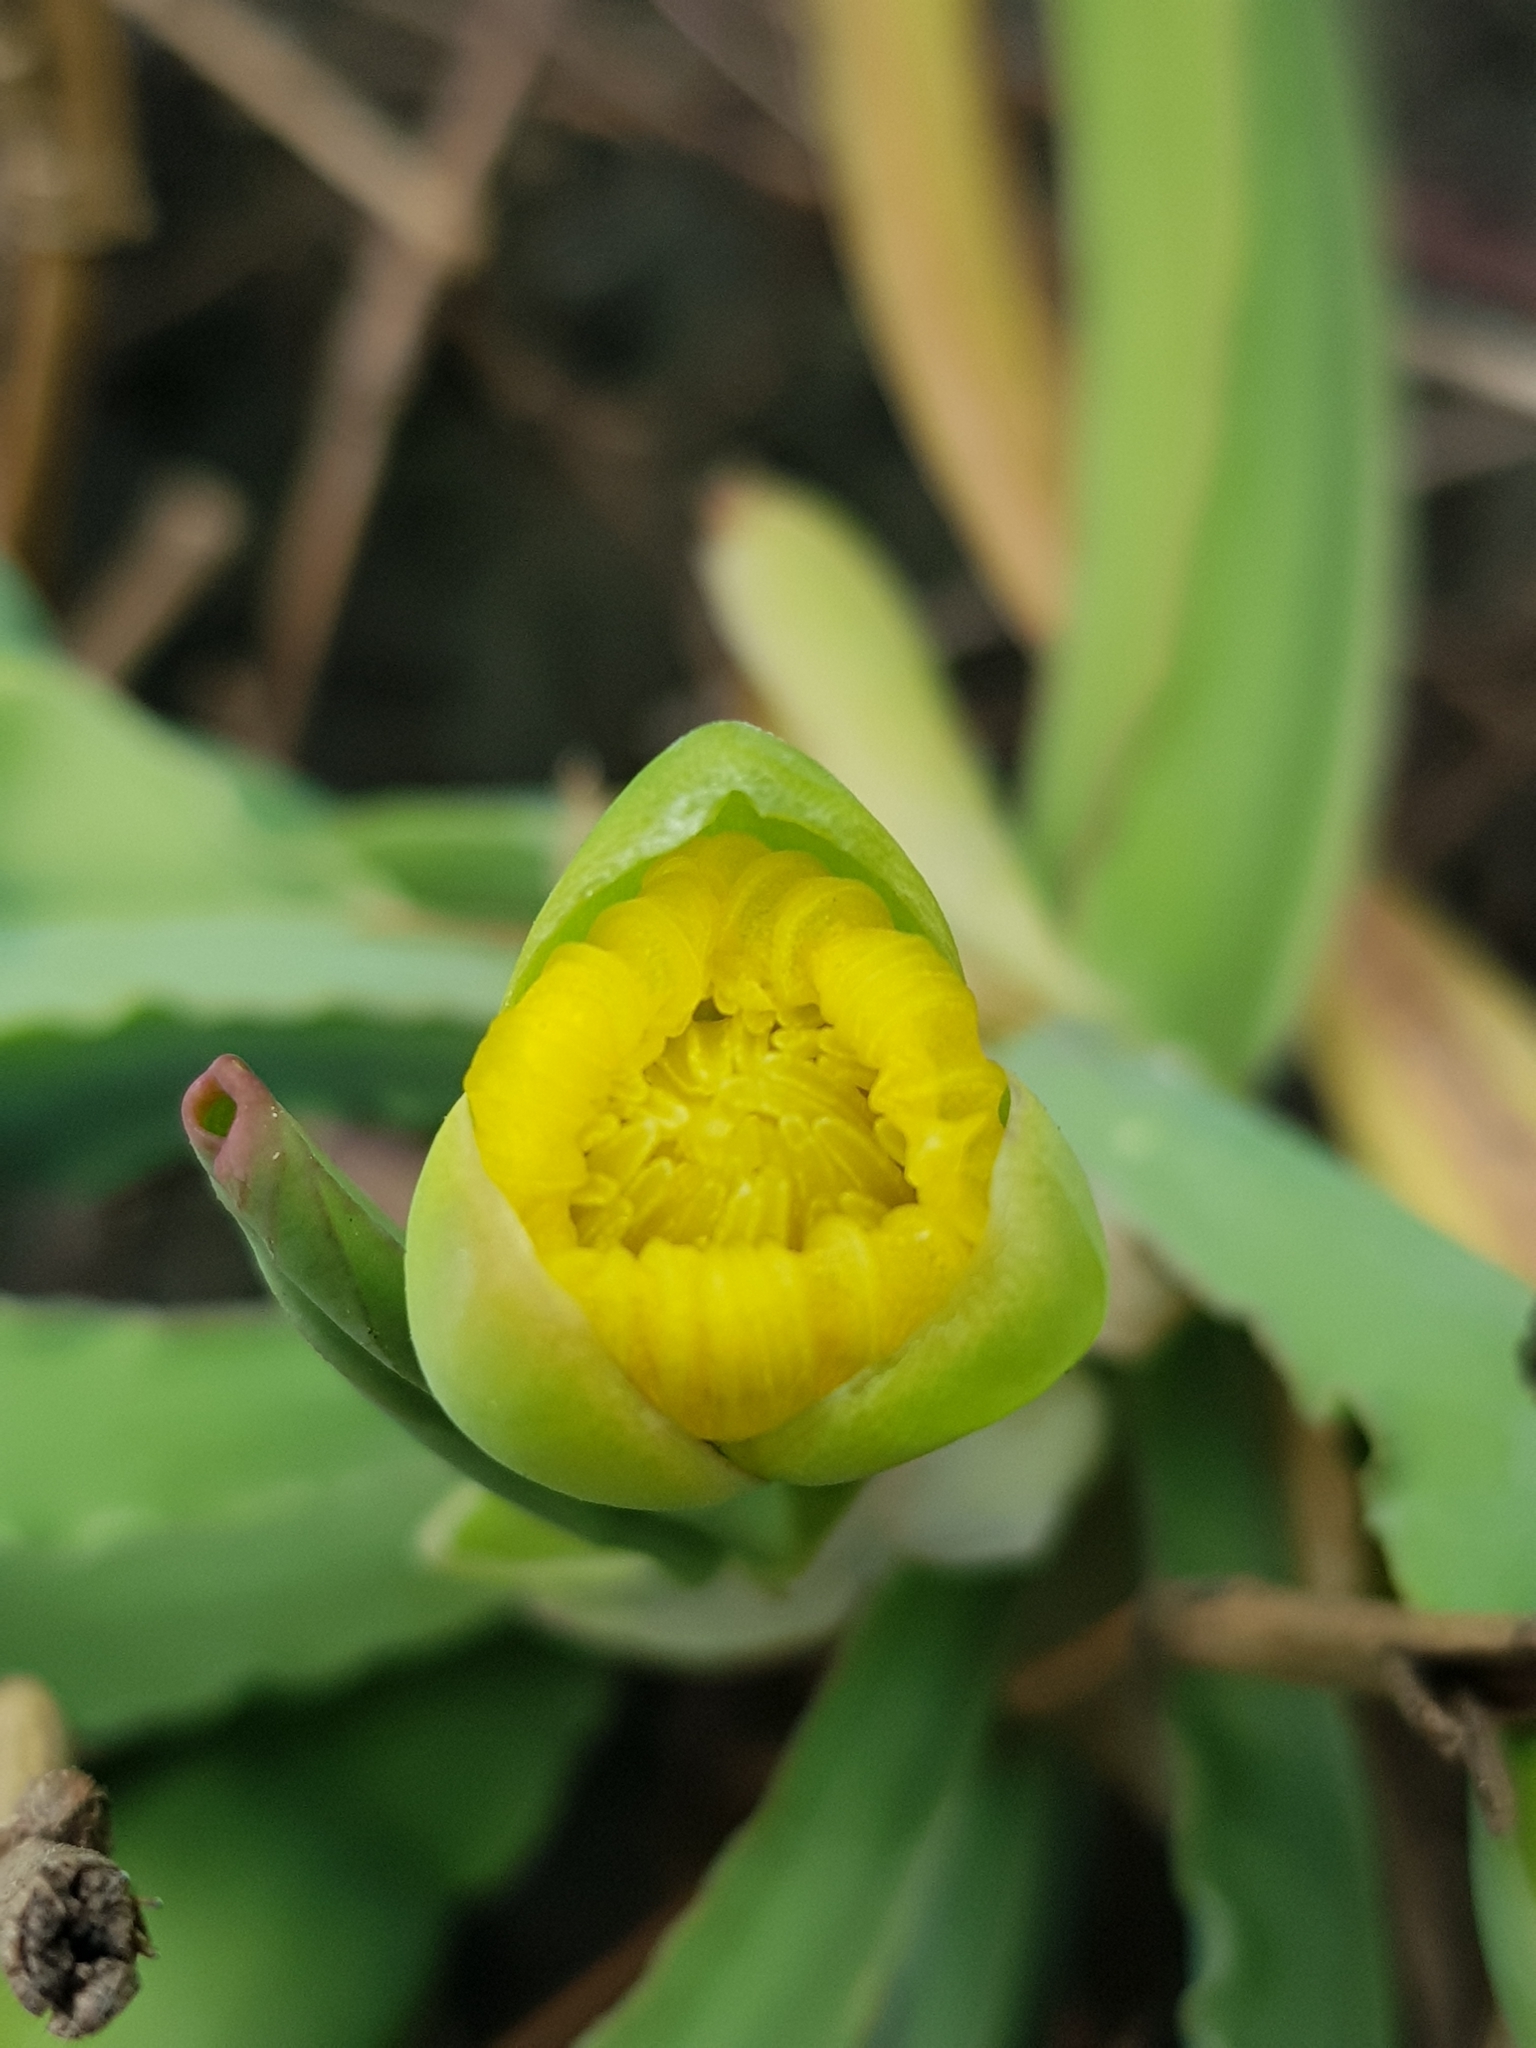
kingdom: Plantae
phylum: Tracheophyta
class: Liliopsida
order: Alismatales
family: Alismataceae
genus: Limnocharis
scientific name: Limnocharis flava
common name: Sawah-flower-rush
